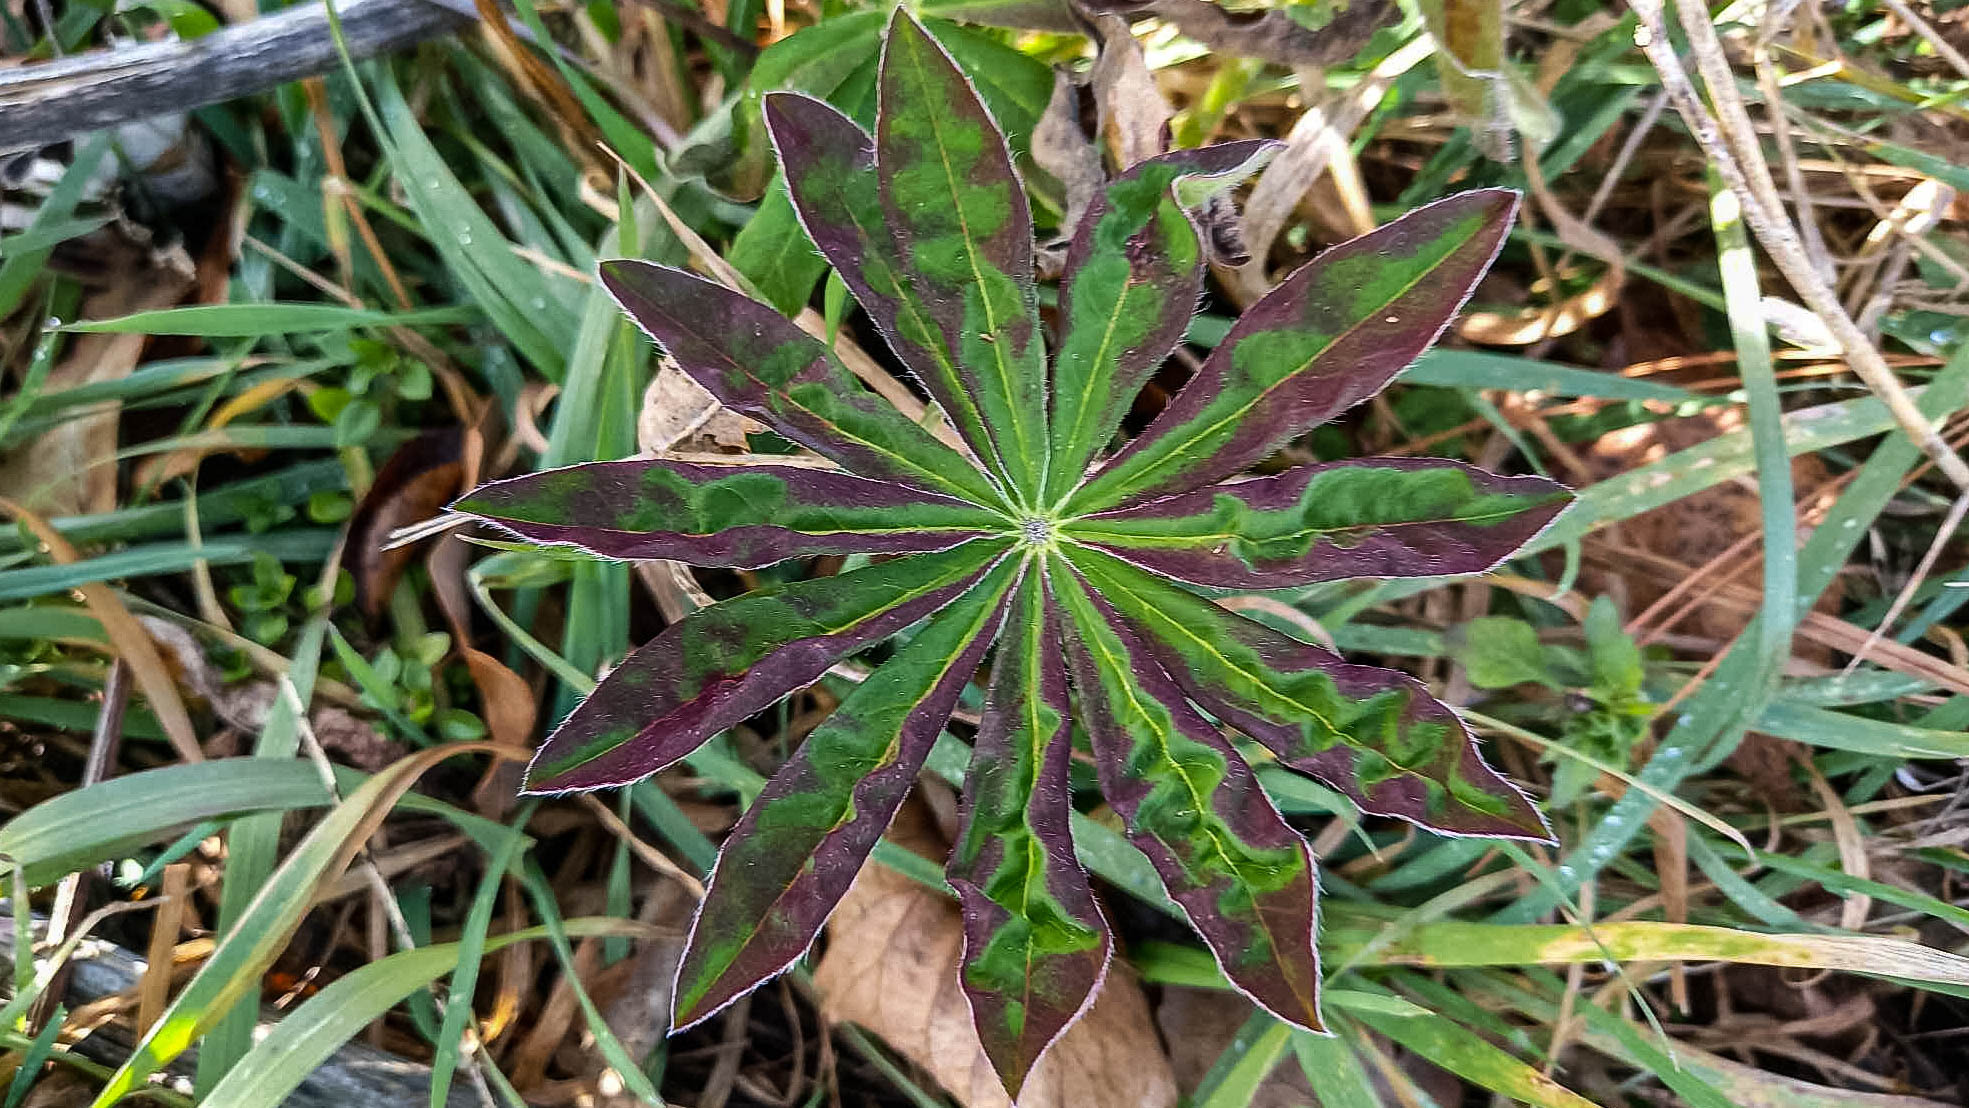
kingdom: Plantae
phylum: Tracheophyta
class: Magnoliopsida
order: Fabales
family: Fabaceae
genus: Lupinus
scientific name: Lupinus polyphyllus
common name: Garden lupin
